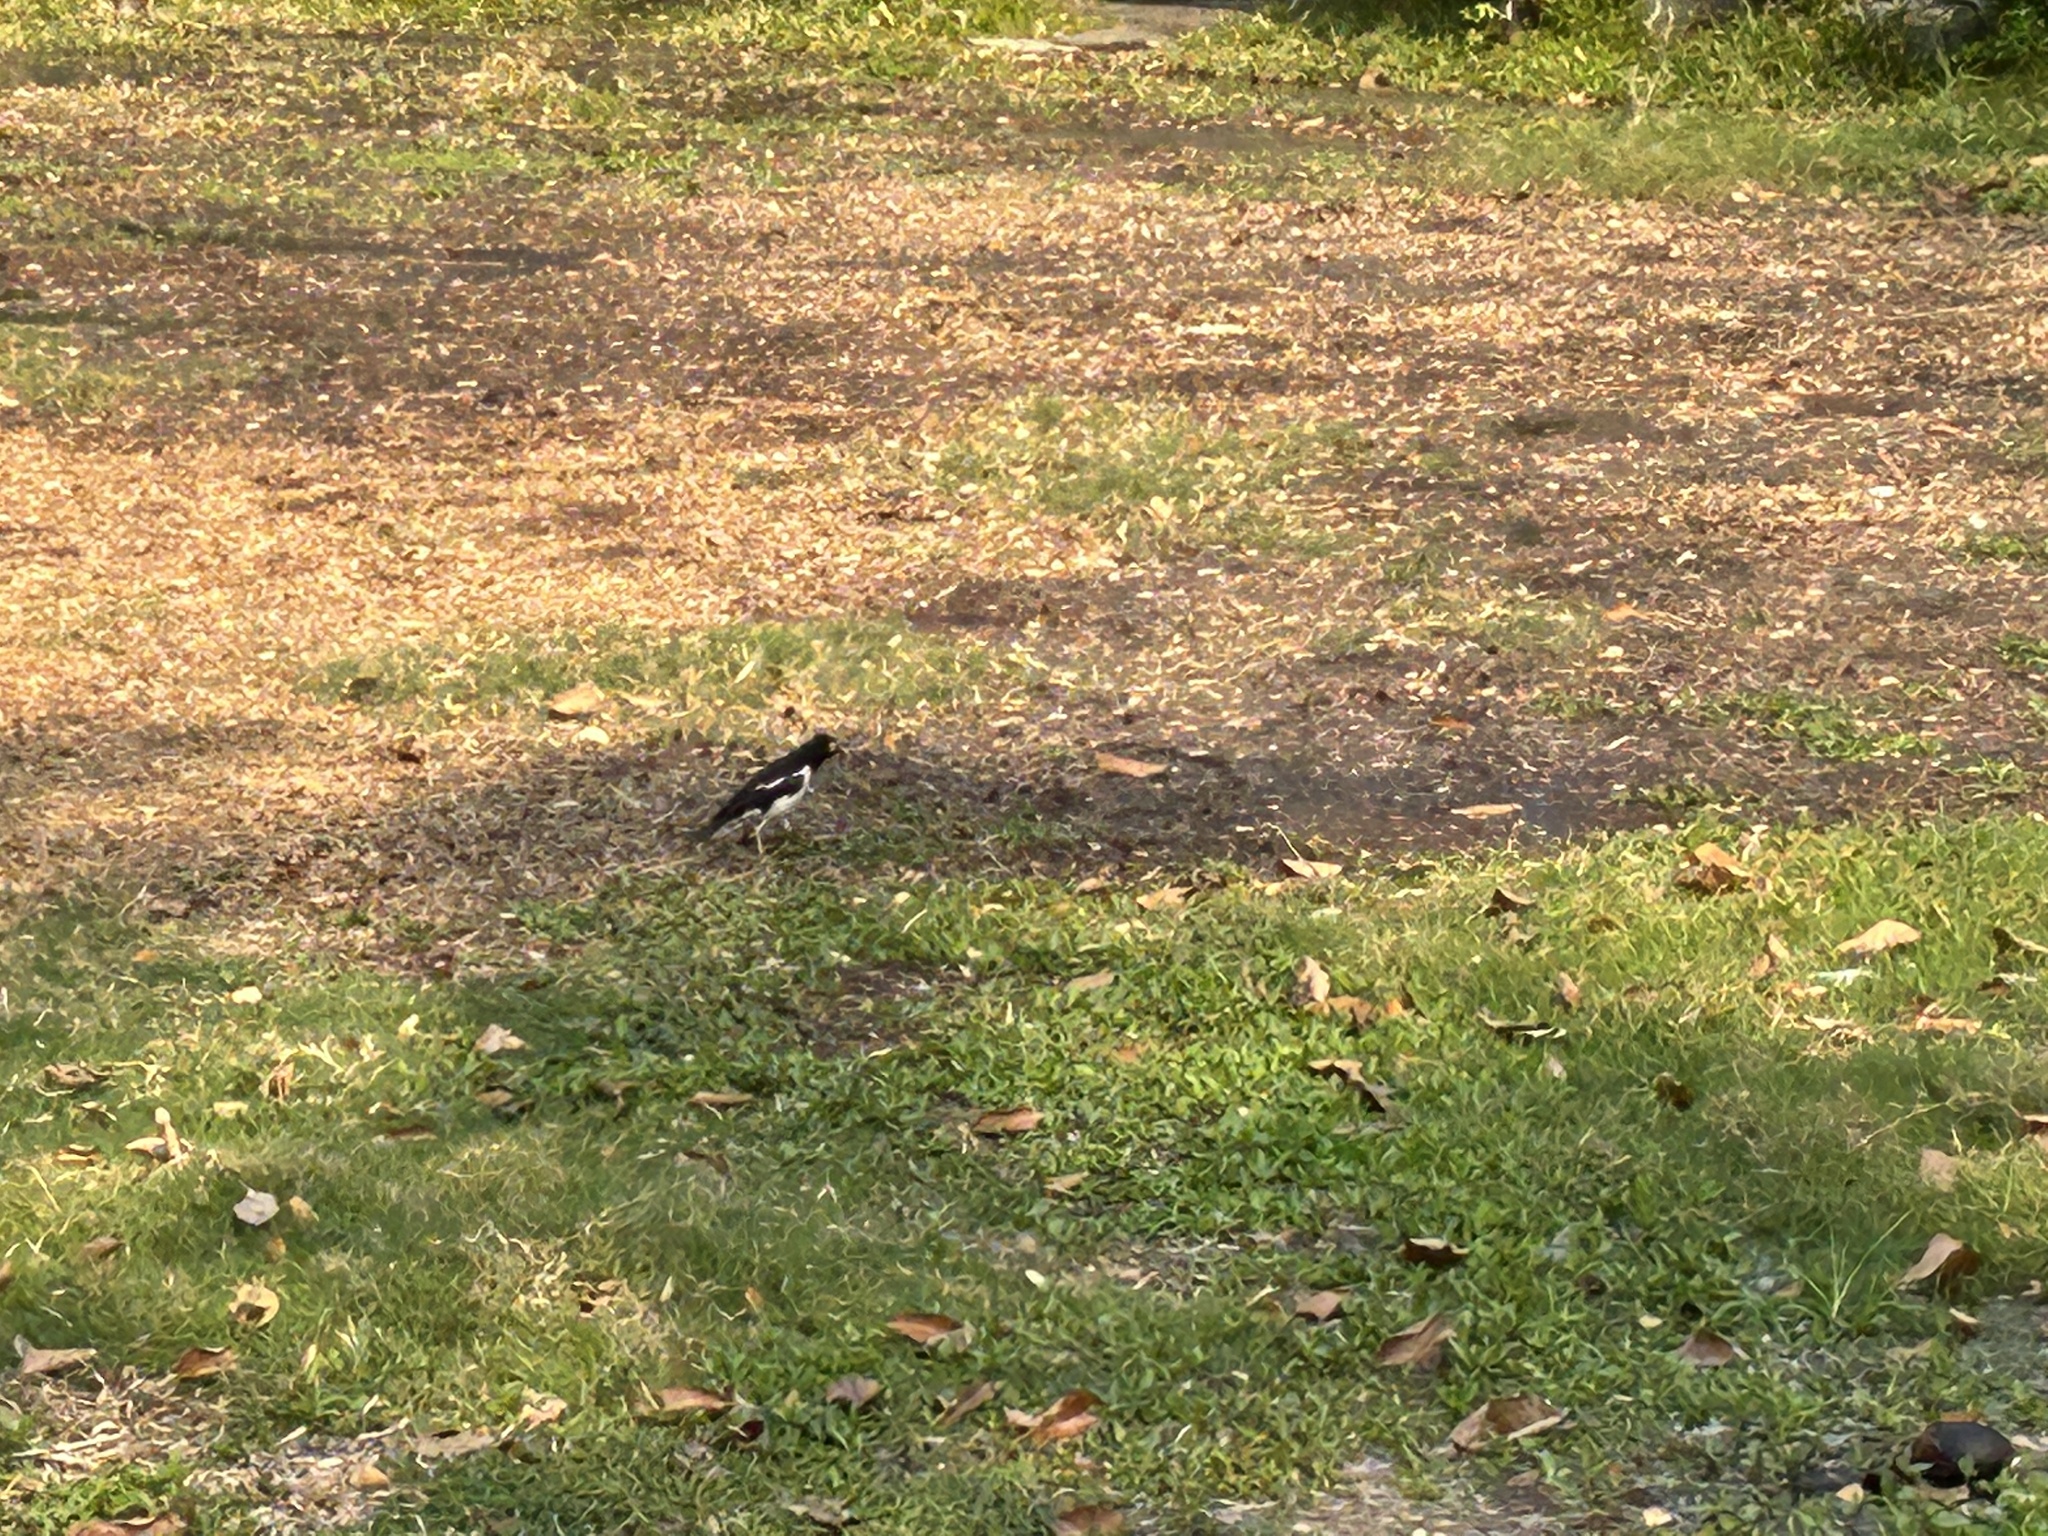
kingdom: Animalia
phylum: Chordata
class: Aves
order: Passeriformes
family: Sturnidae
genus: Gracupica
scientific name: Gracupica contra
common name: Pied myna
